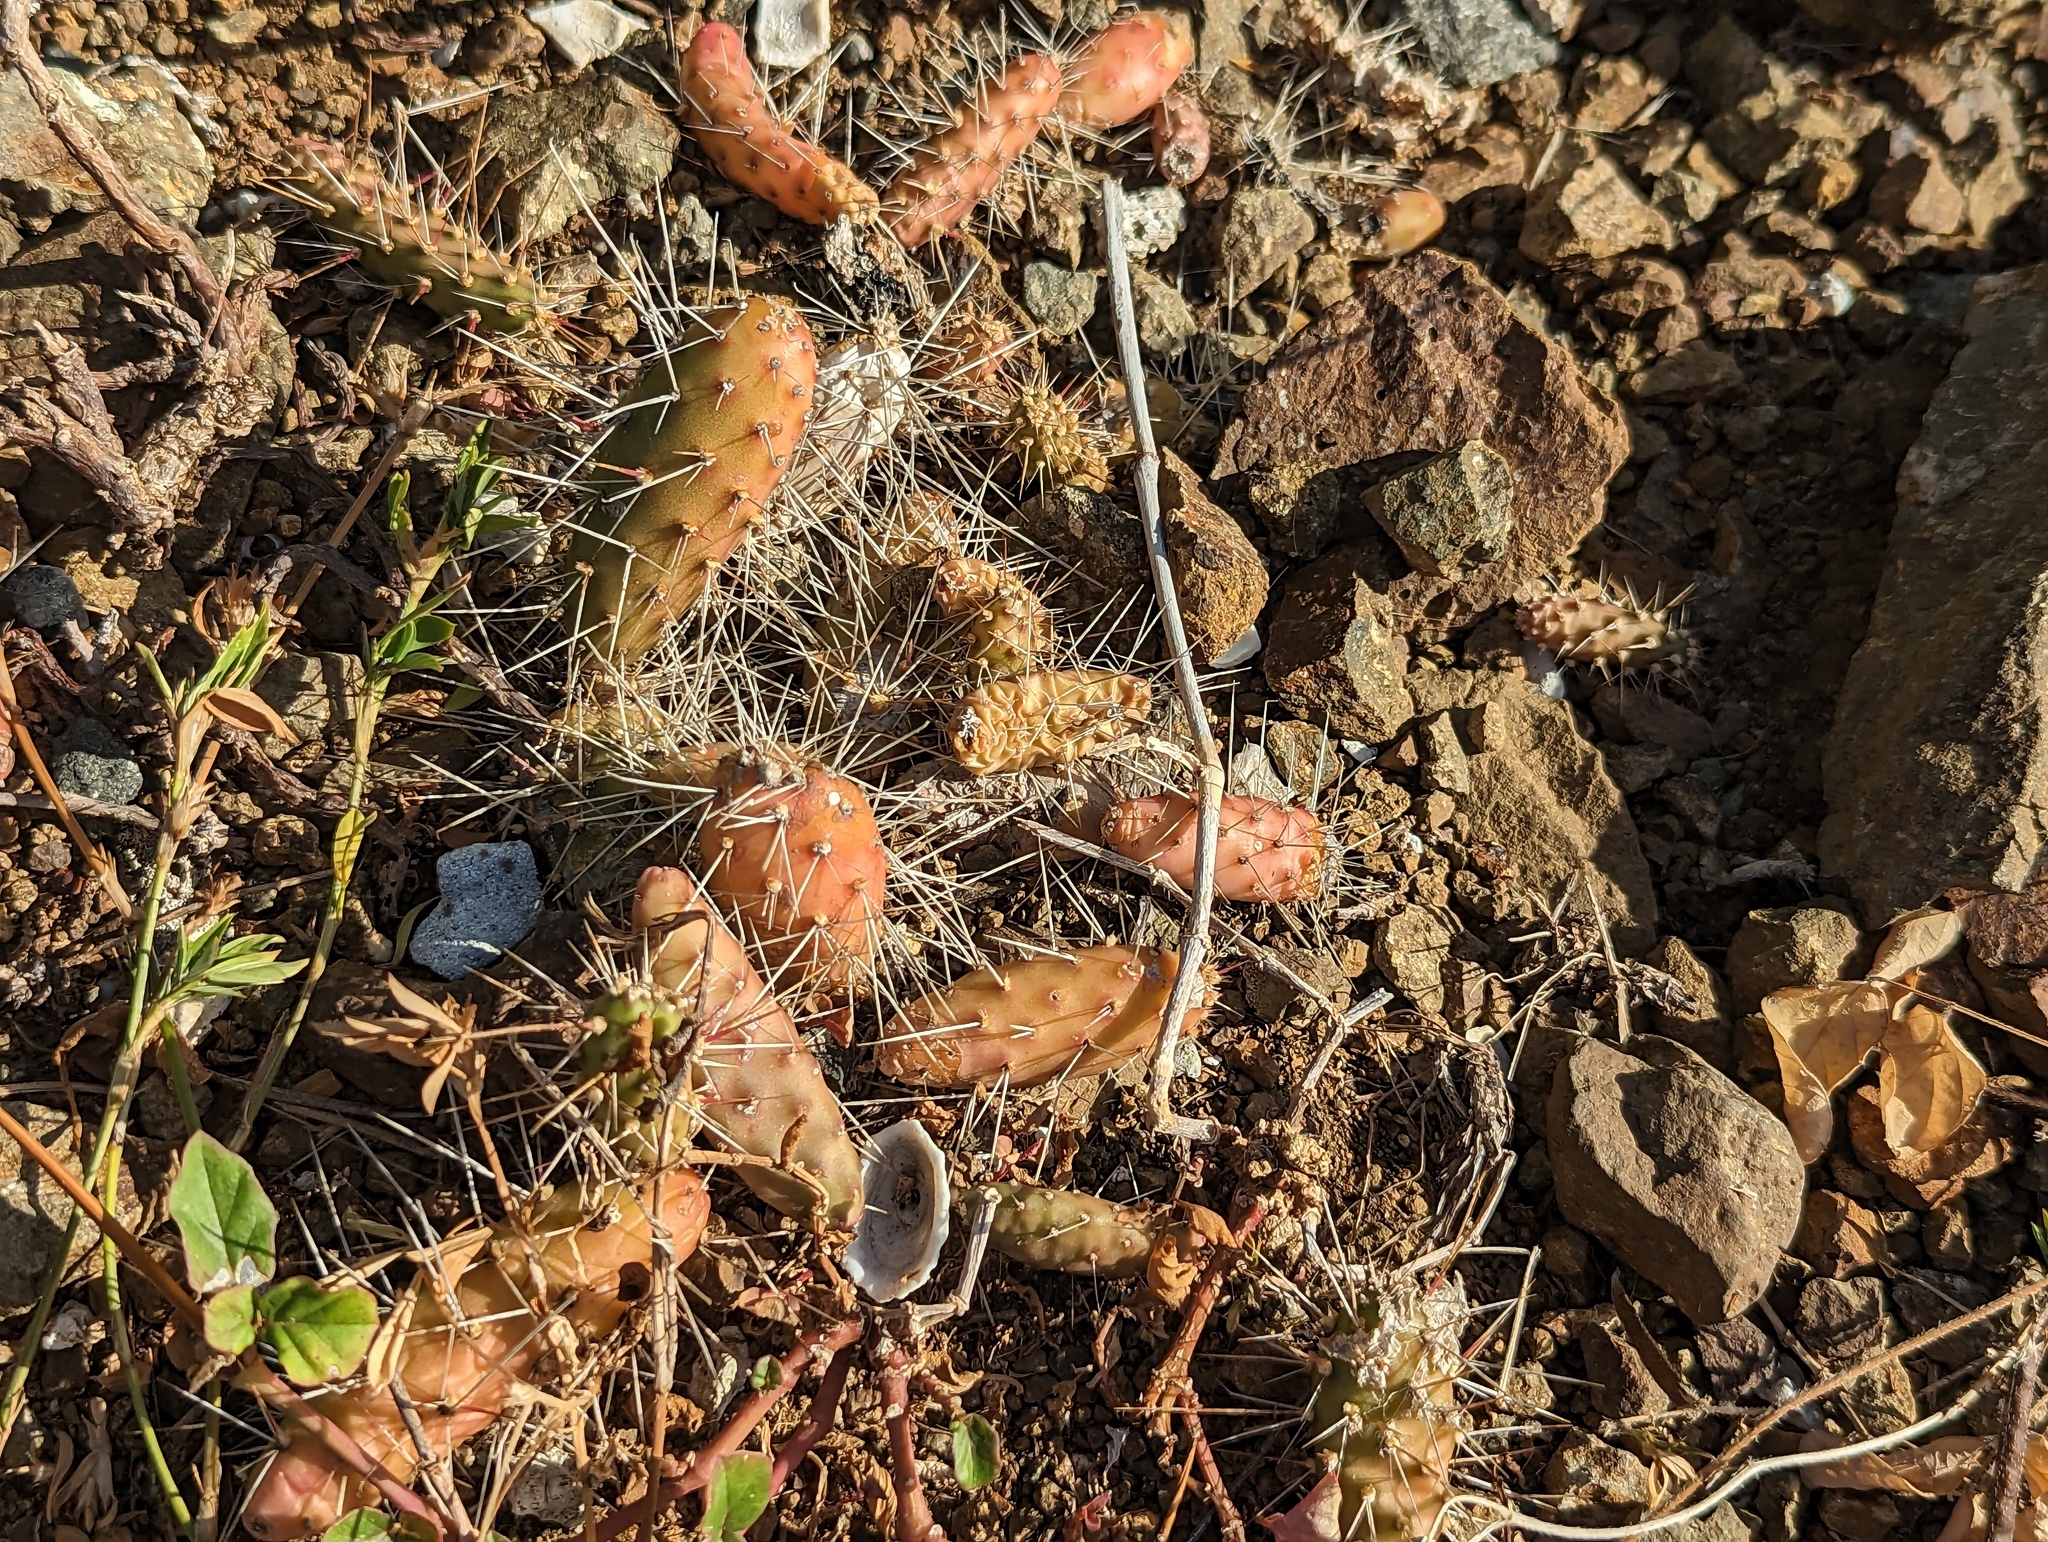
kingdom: Plantae
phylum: Tracheophyta
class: Magnoliopsida
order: Caryophyllales
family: Cactaceae
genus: Opuntia
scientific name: Opuntia repens
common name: Roving pricklypear
